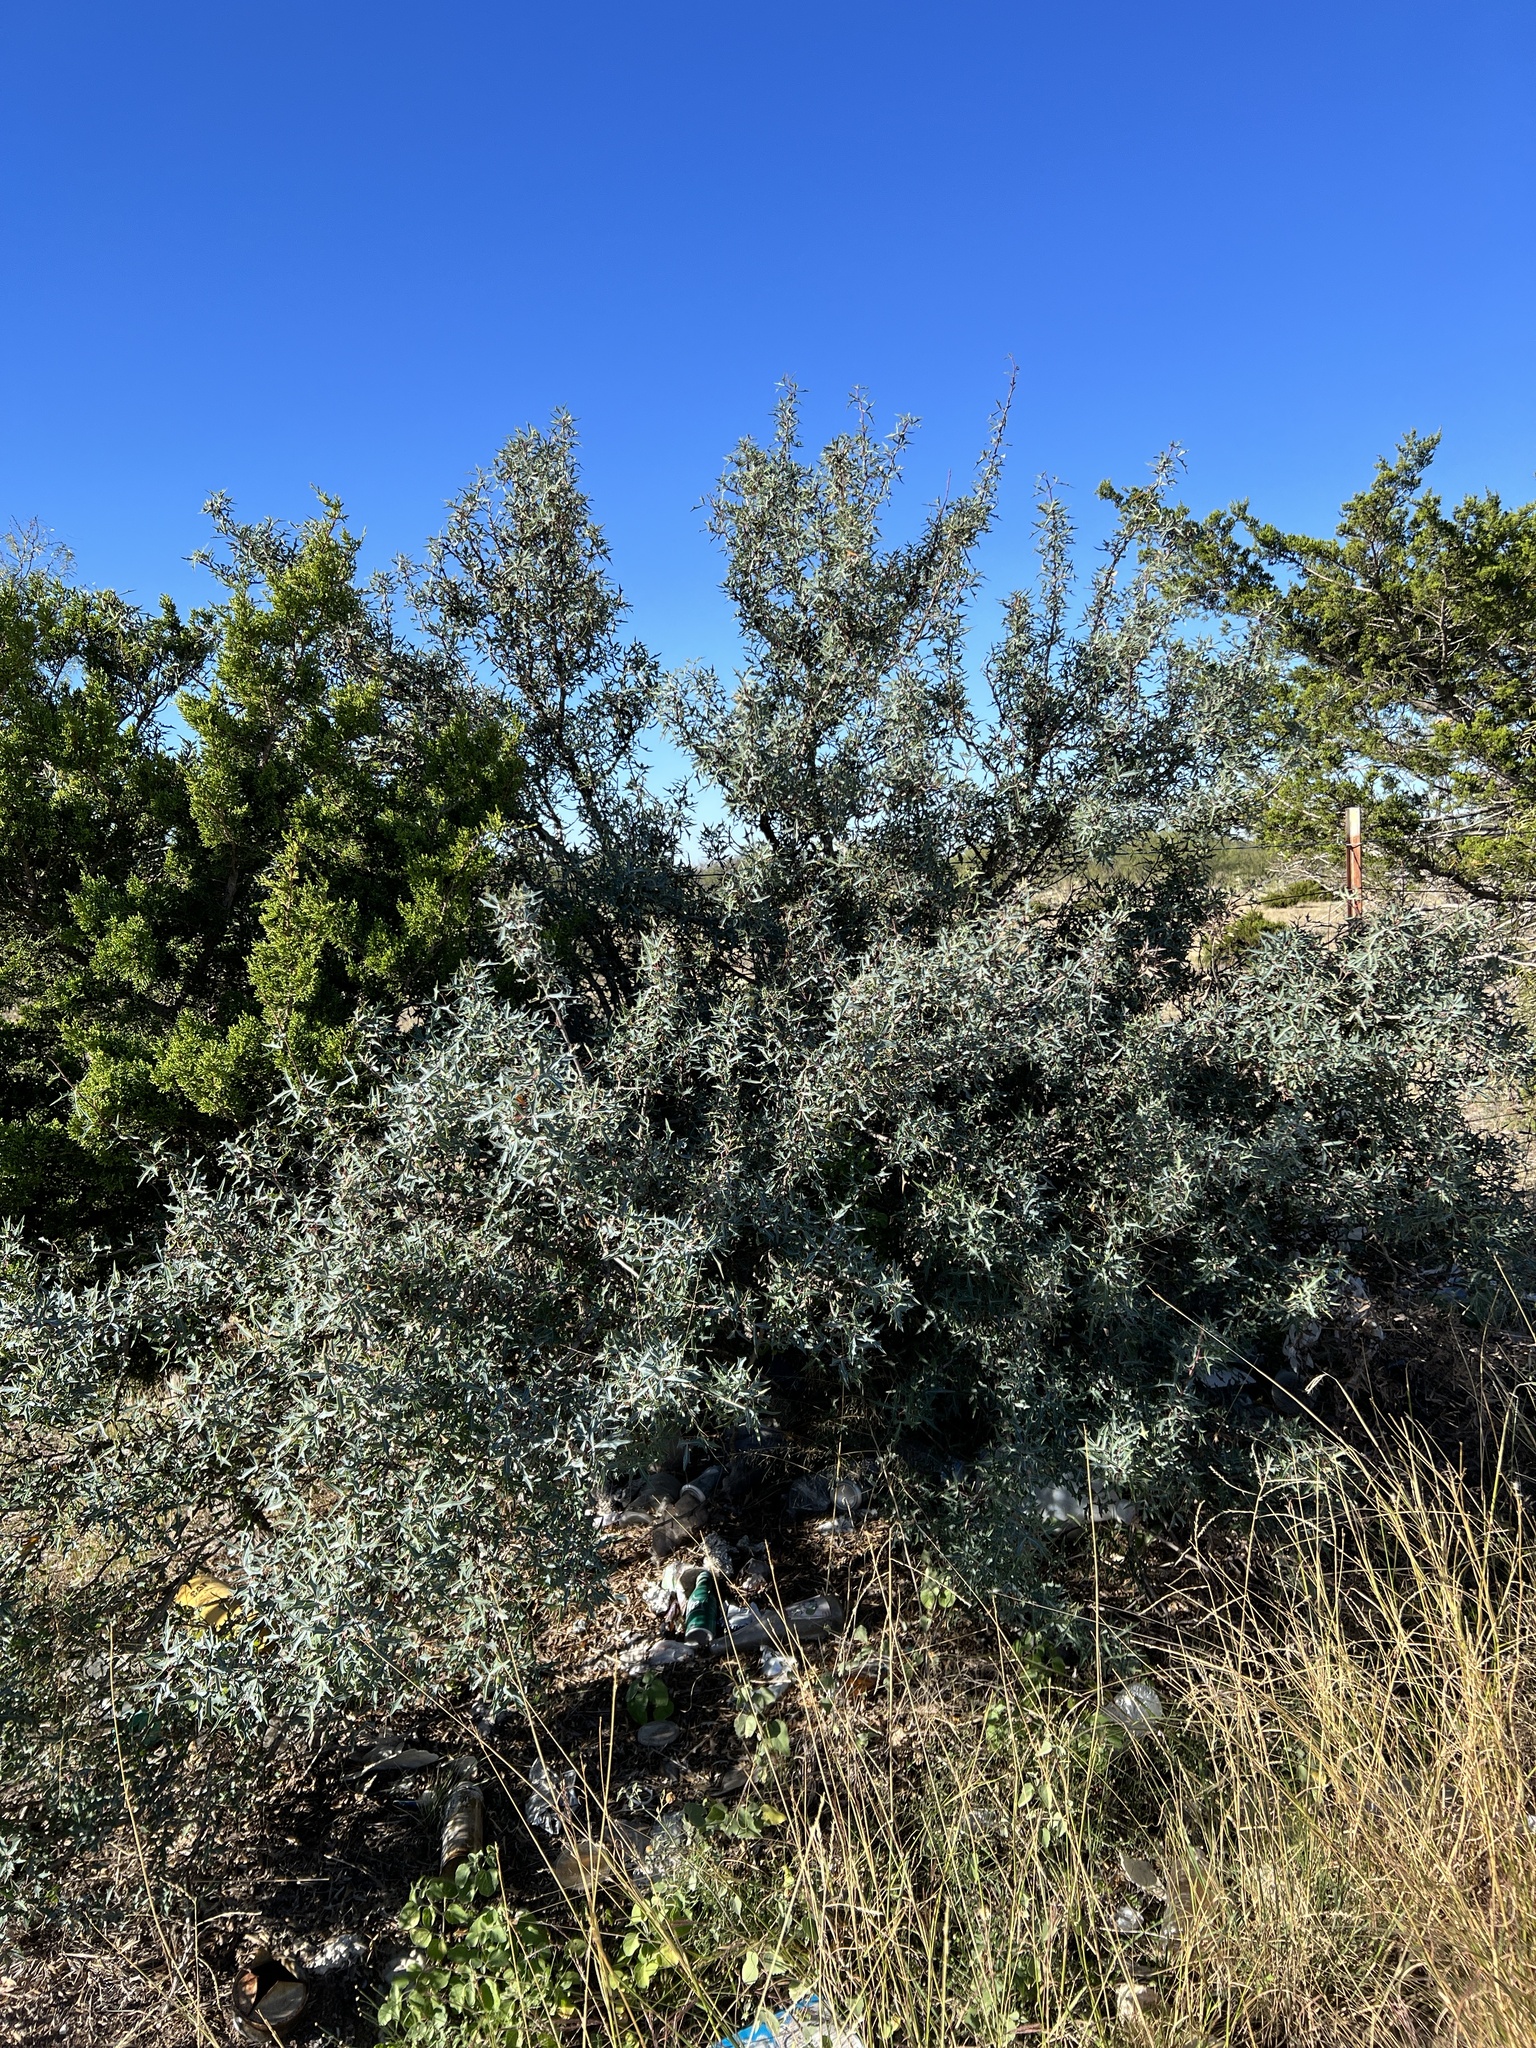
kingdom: Plantae
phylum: Tracheophyta
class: Magnoliopsida
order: Ranunculales
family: Berberidaceae
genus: Alloberberis
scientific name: Alloberberis trifoliolata
